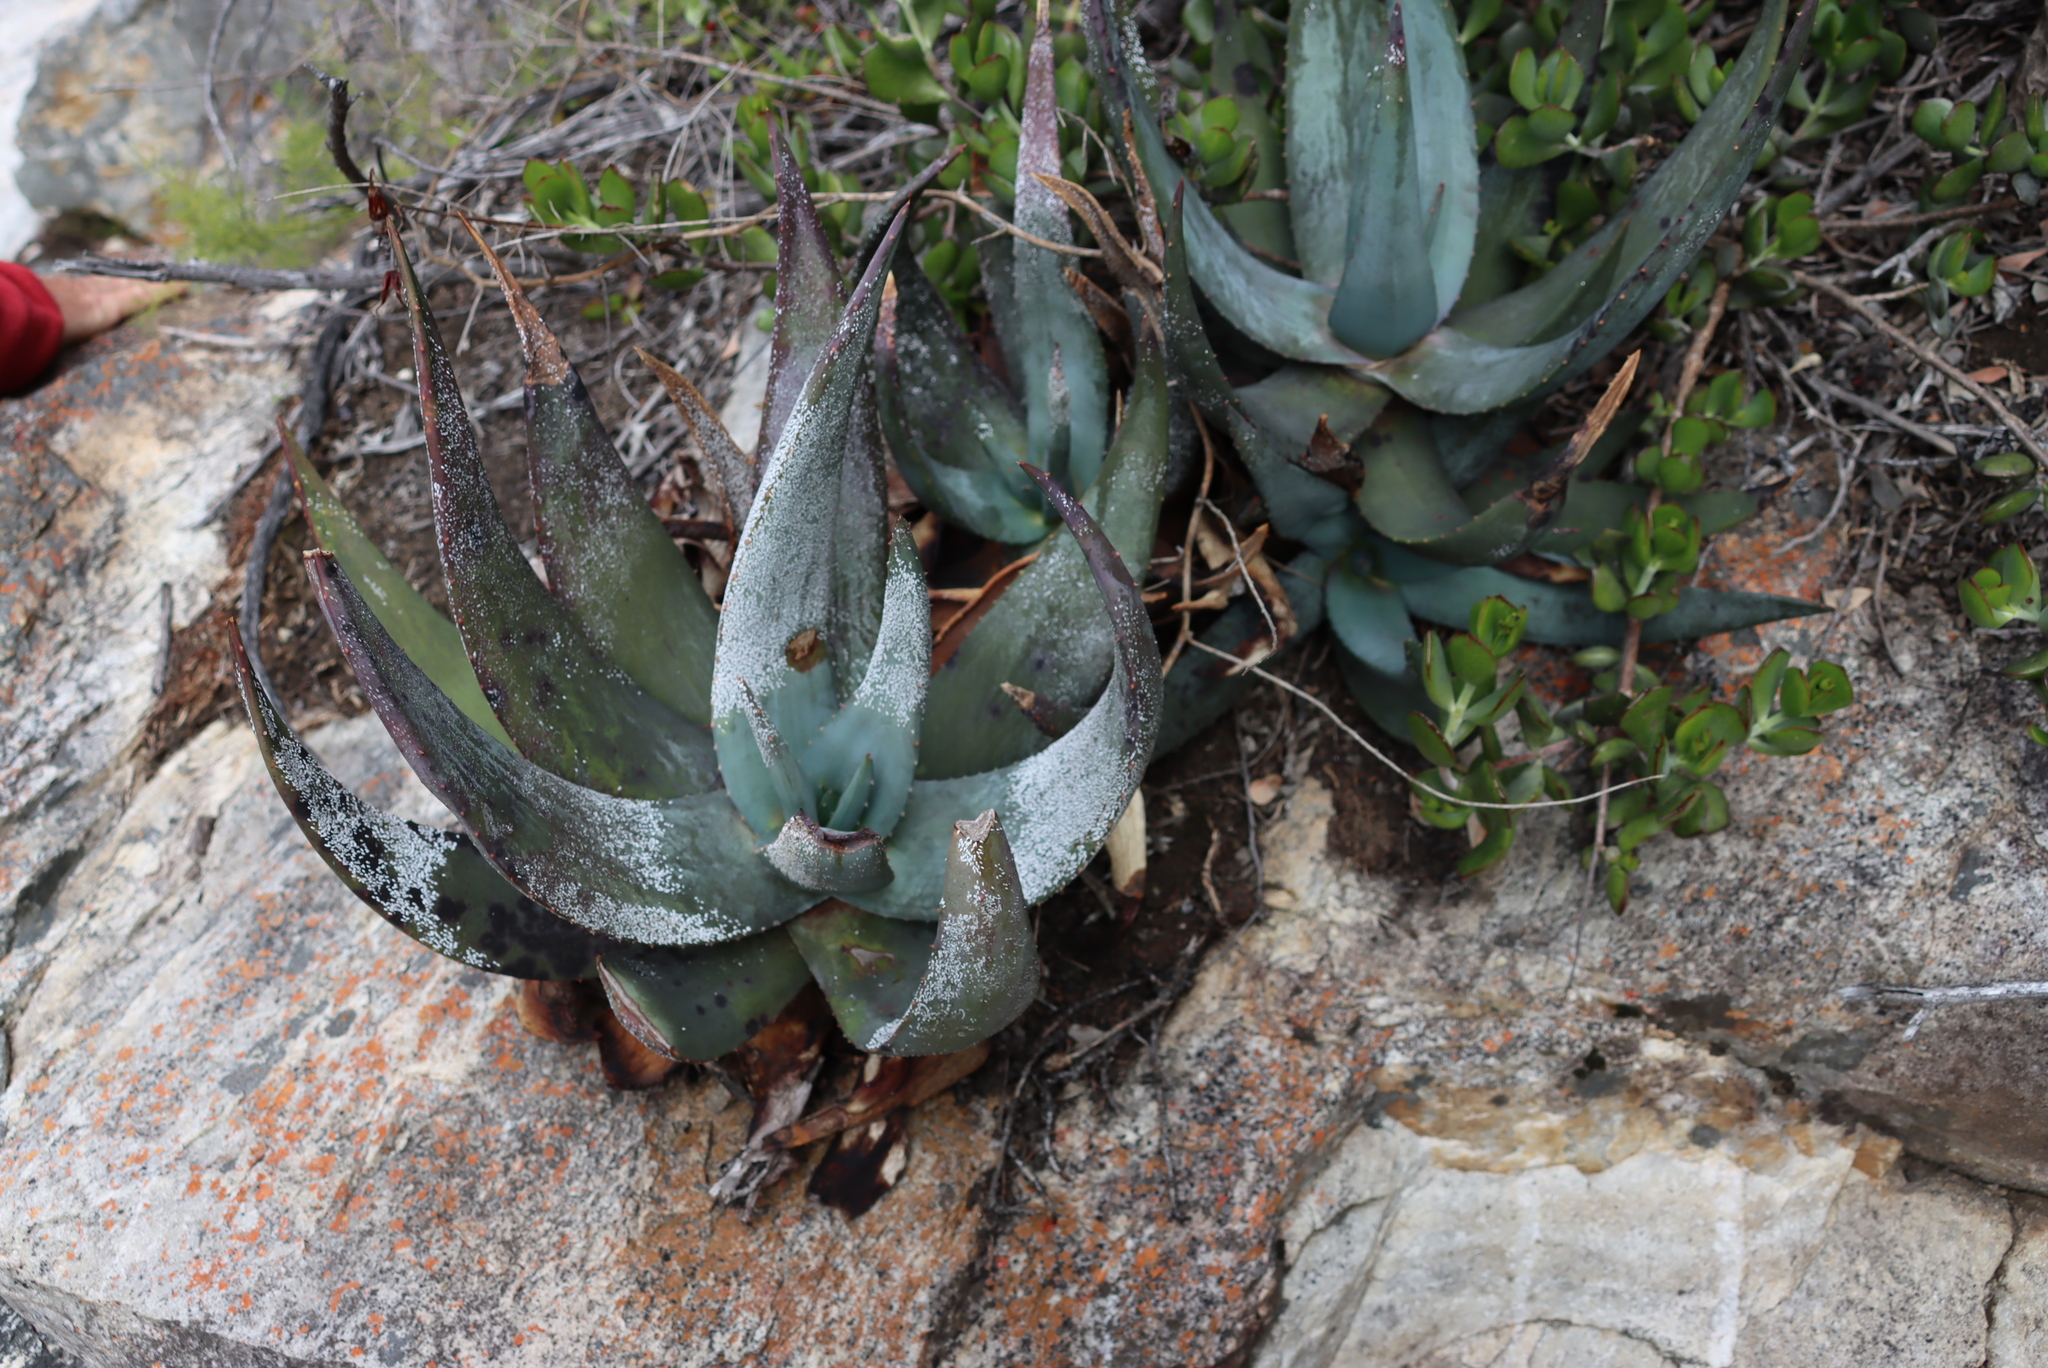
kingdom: Plantae
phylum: Tracheophyta
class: Liliopsida
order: Asparagales
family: Asphodelaceae
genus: Aloe
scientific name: Aloe comptonii
